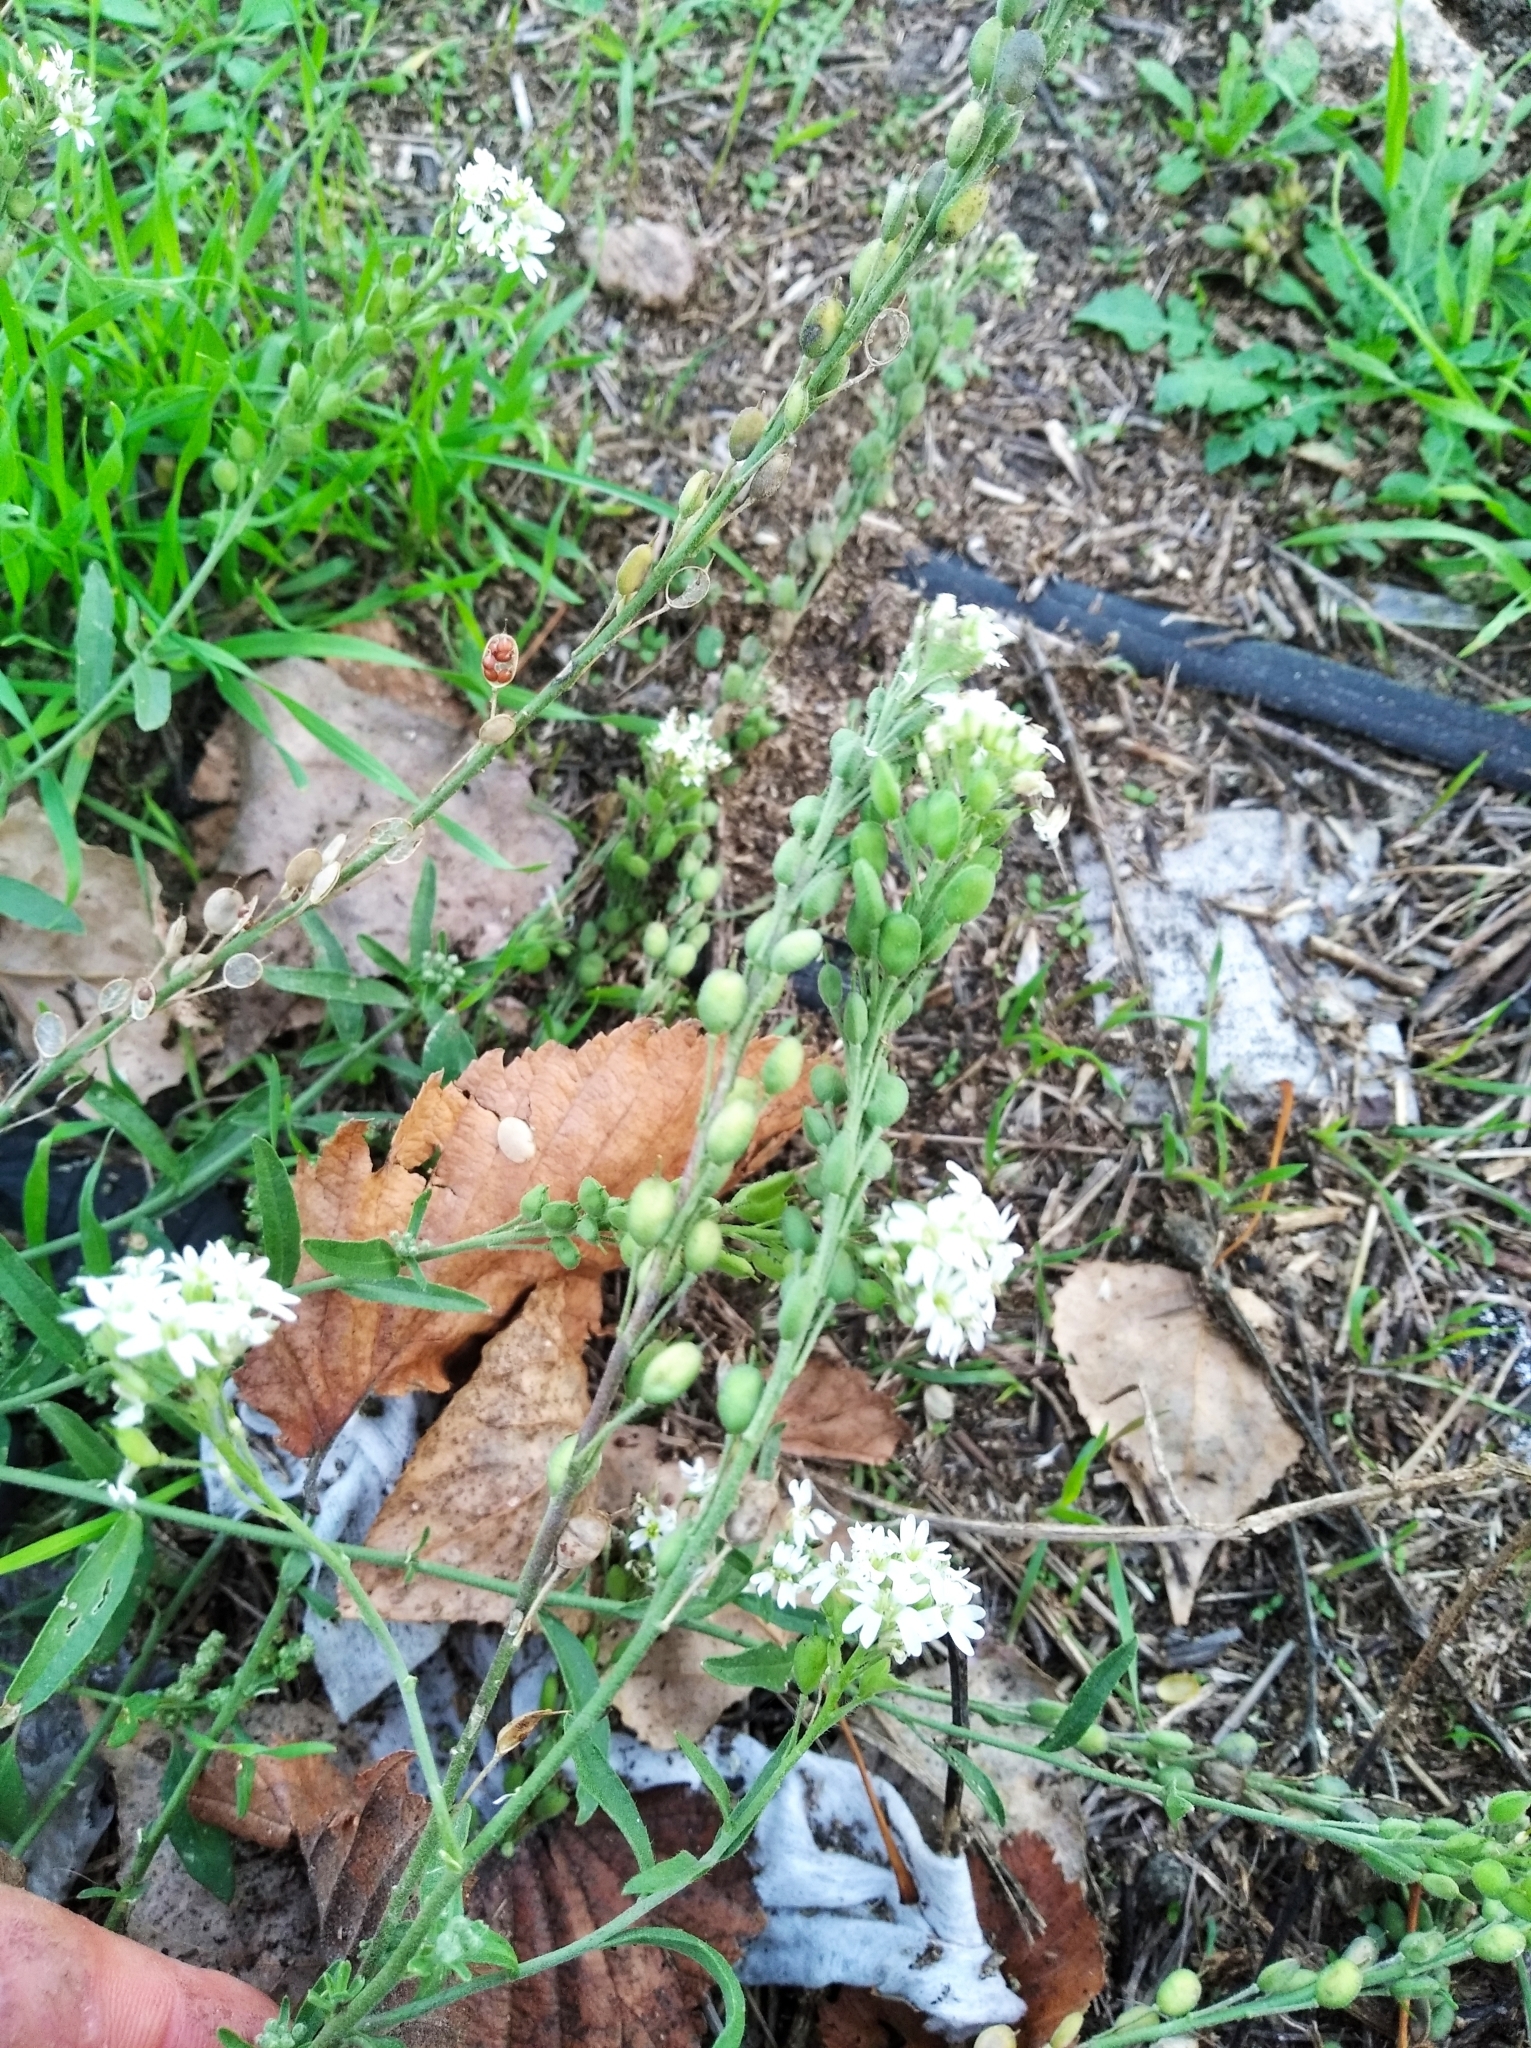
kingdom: Plantae
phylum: Tracheophyta
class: Magnoliopsida
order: Brassicales
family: Brassicaceae
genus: Berteroa
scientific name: Berteroa incana
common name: Hoary alison
